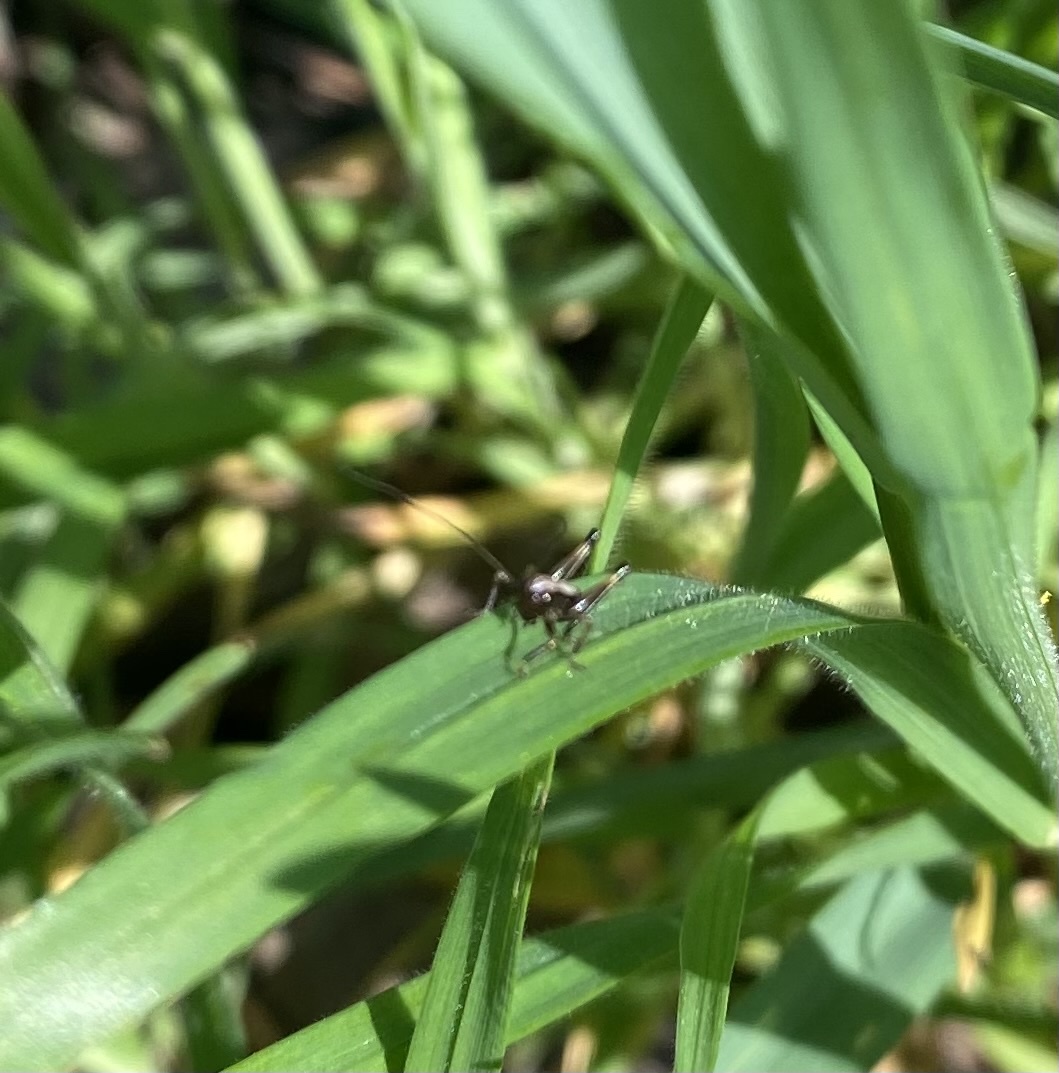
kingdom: Animalia
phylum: Arthropoda
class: Insecta
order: Orthoptera
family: Tettigoniidae
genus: Pholidoptera
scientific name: Pholidoptera griseoaptera
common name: Dark bush-cricket
